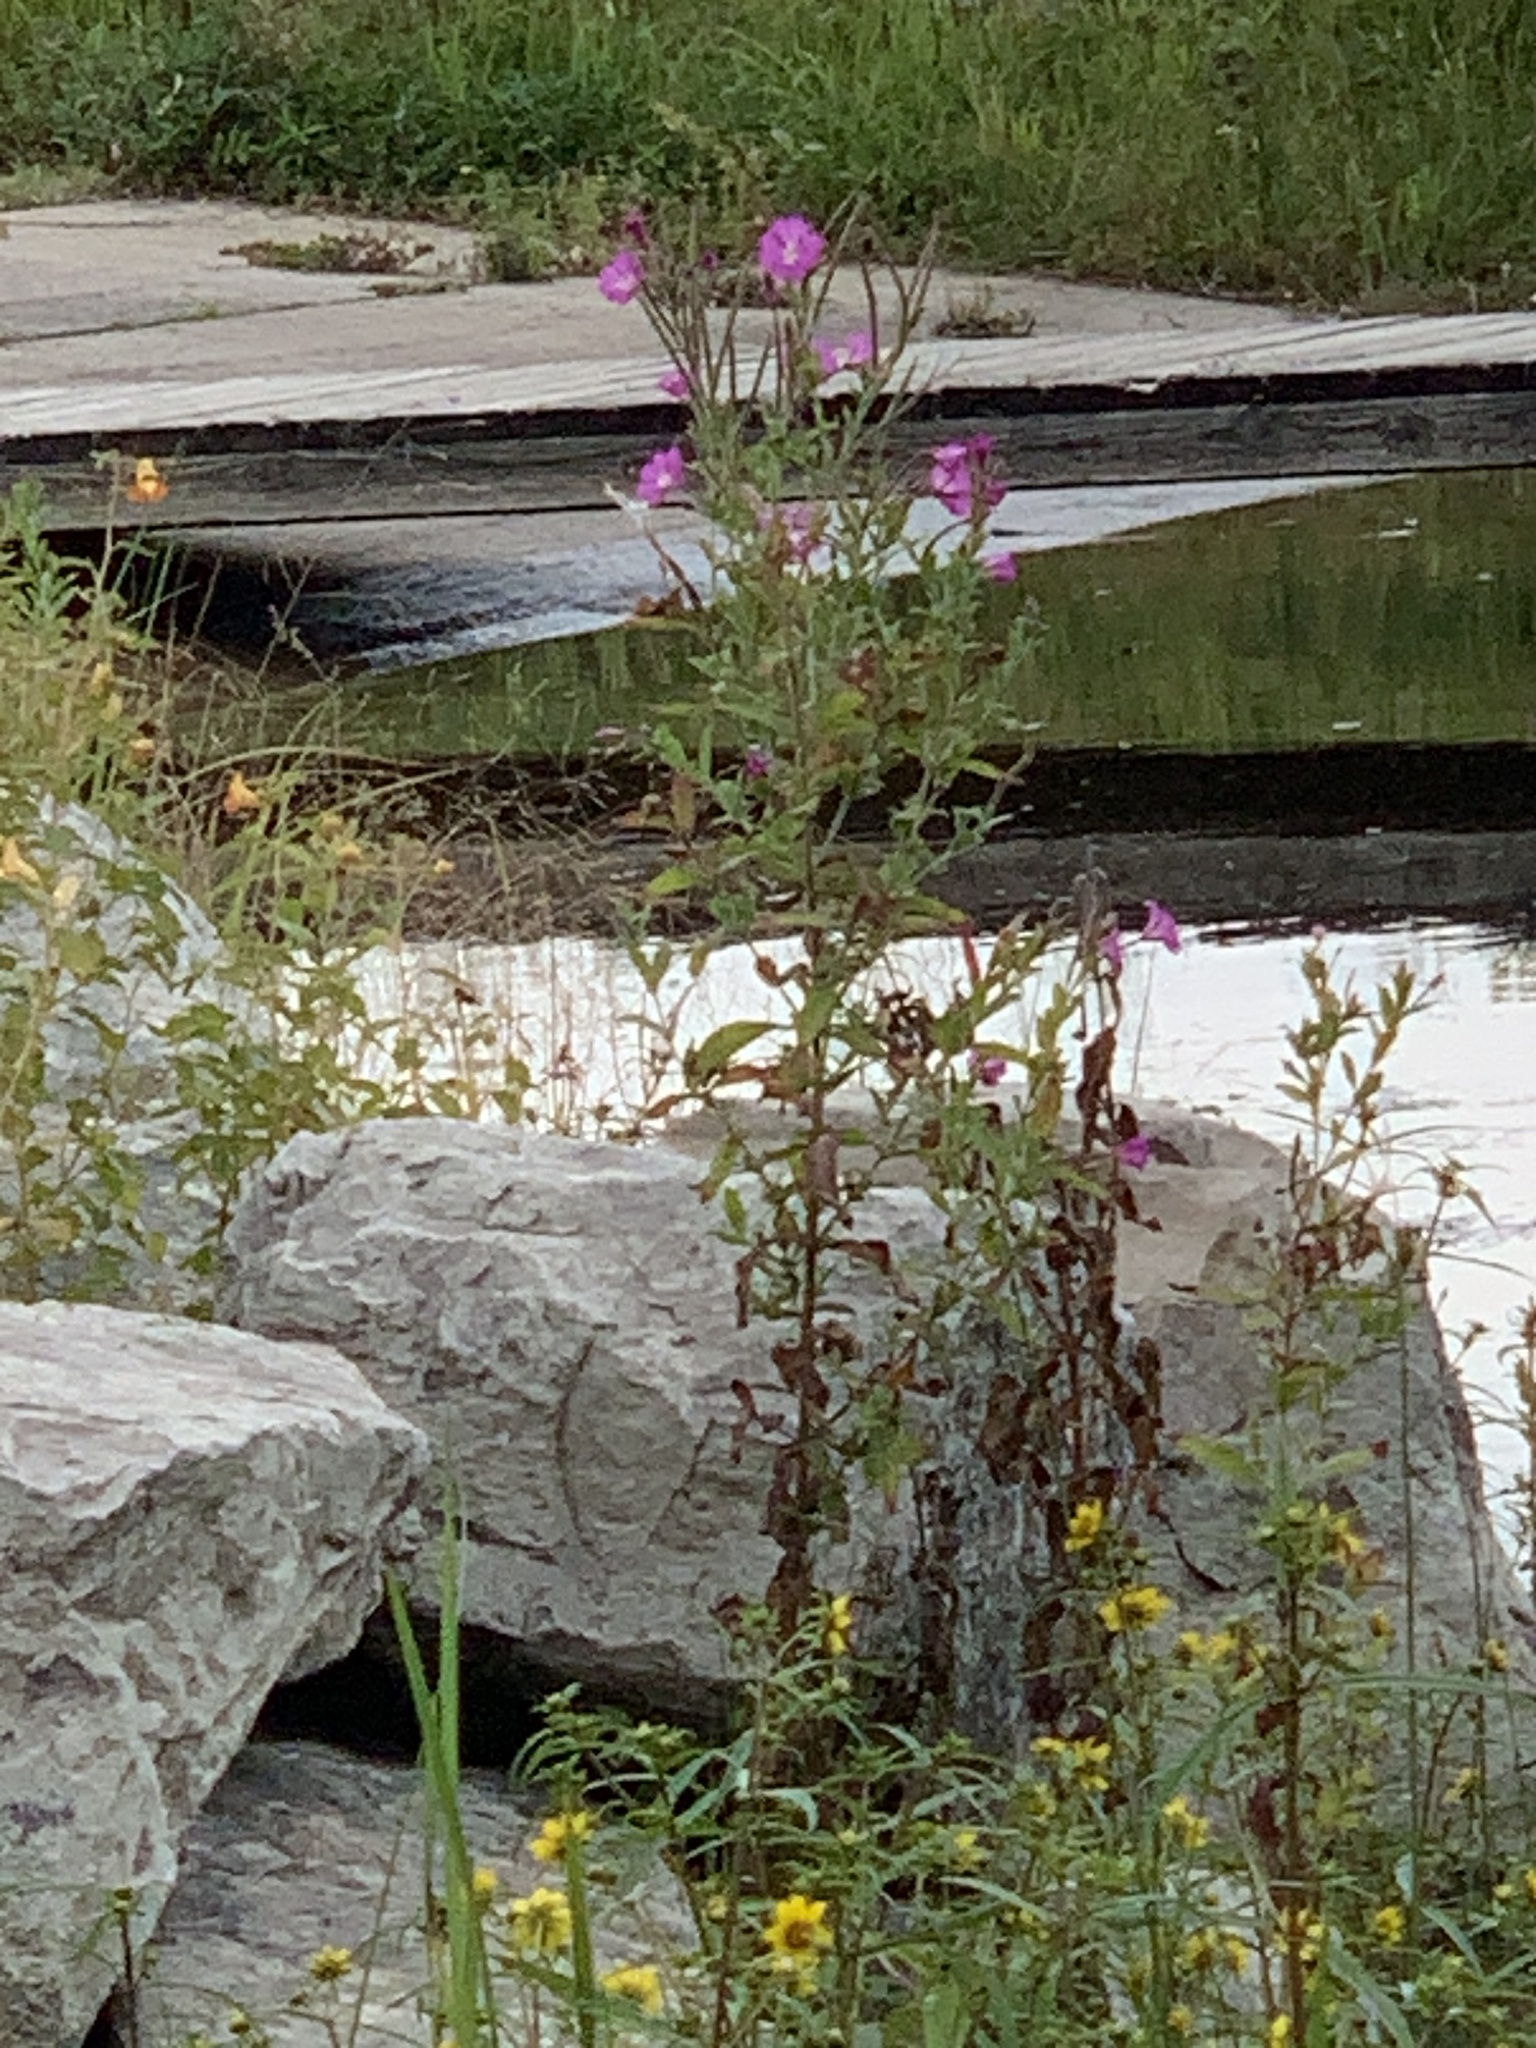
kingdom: Plantae
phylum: Tracheophyta
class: Magnoliopsida
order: Myrtales
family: Onagraceae
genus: Epilobium
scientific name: Epilobium hirsutum
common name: Great willowherb
